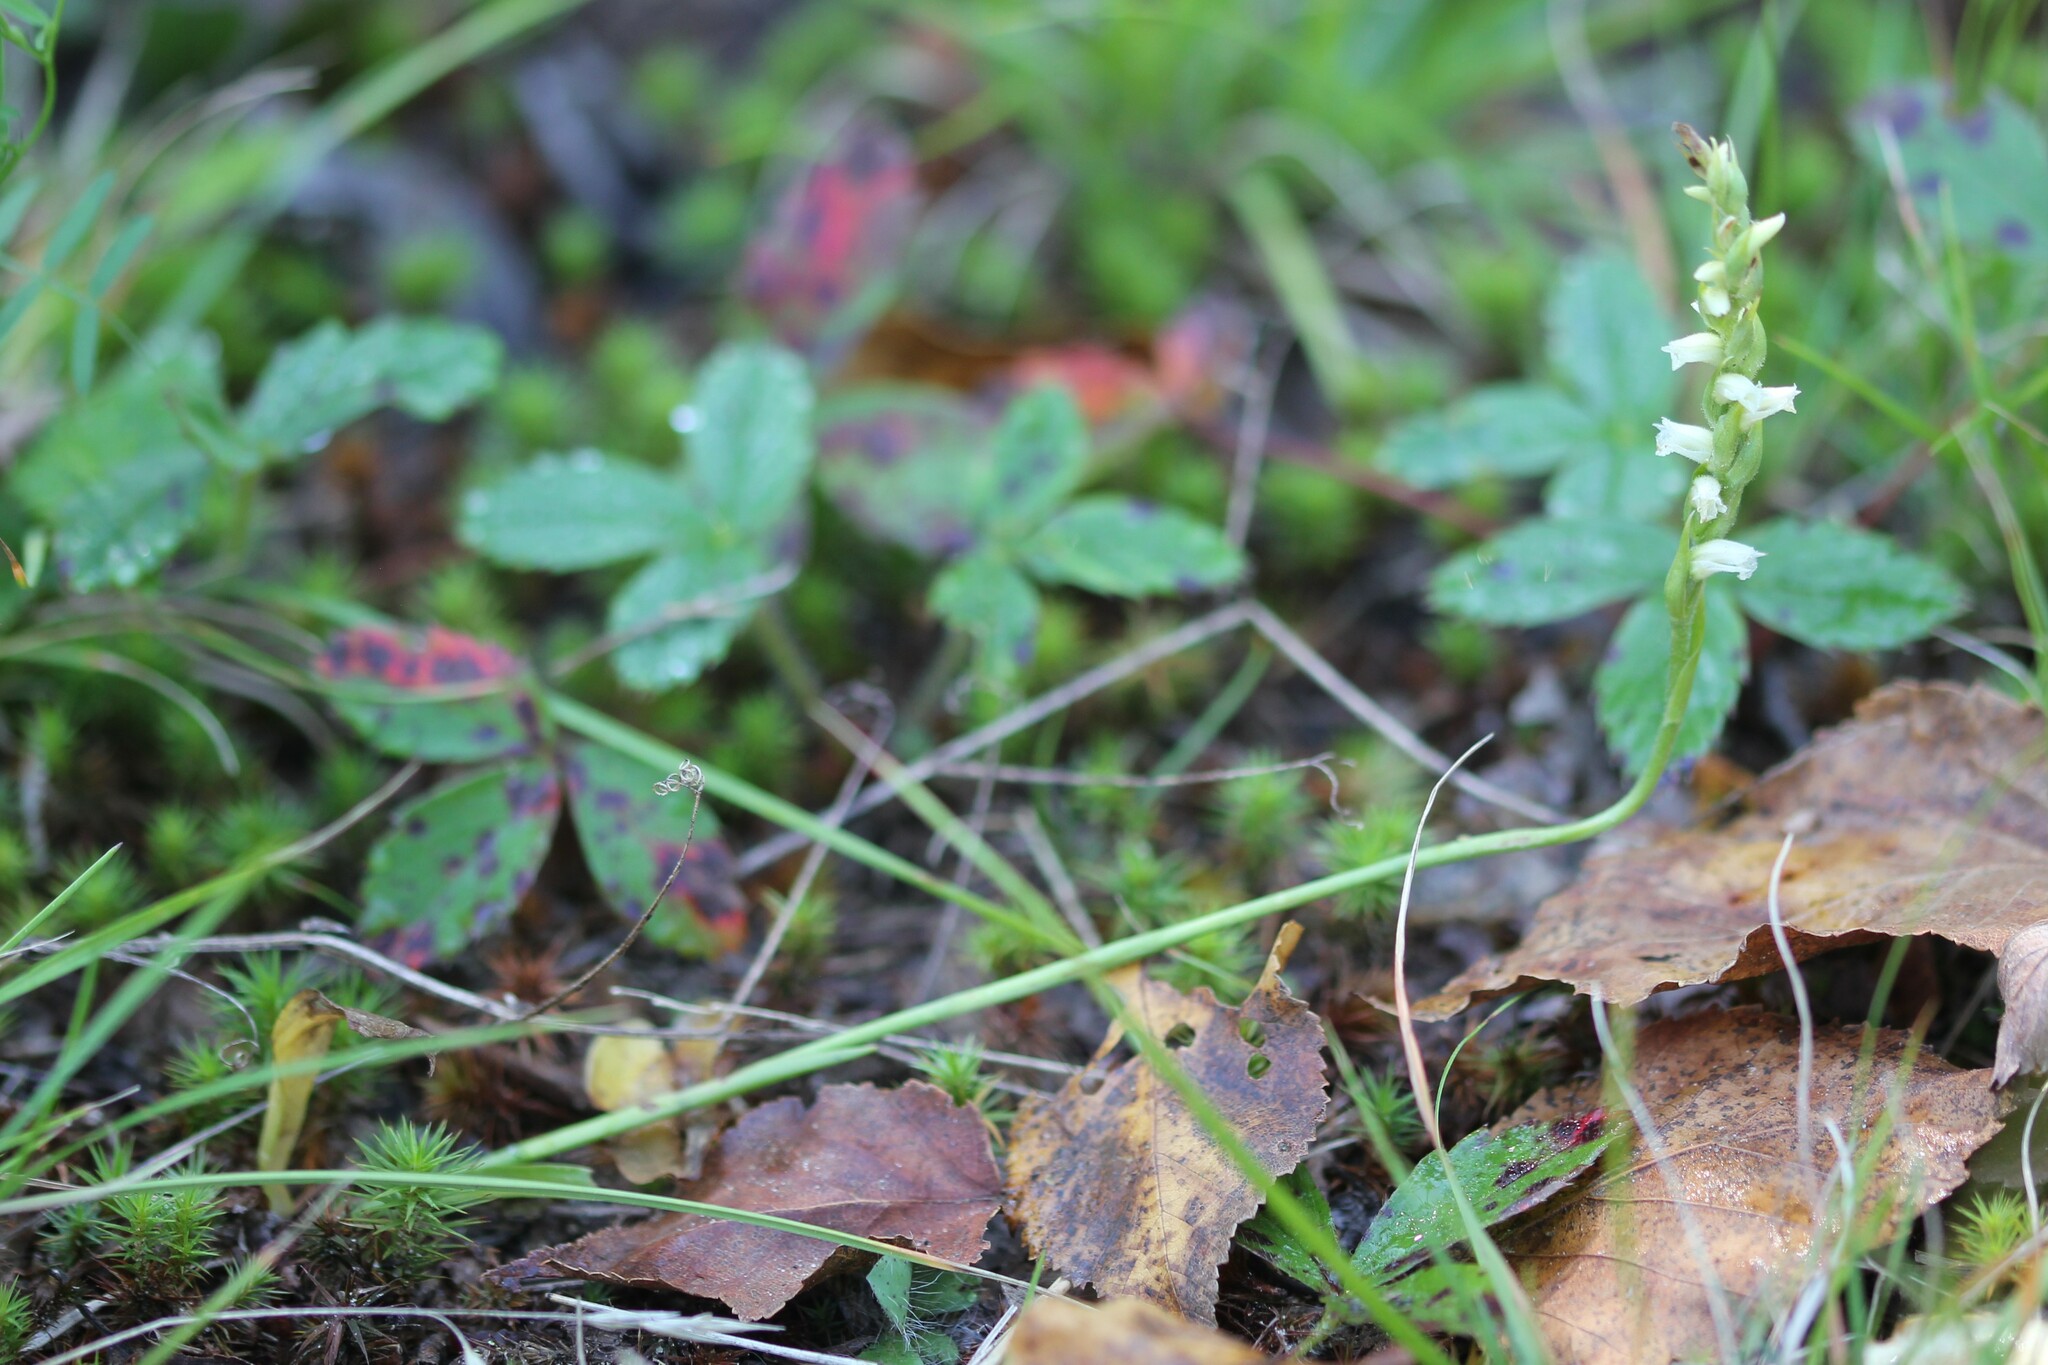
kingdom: Plantae
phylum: Tracheophyta
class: Liliopsida
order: Asparagales
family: Orchidaceae
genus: Spiranthes
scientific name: Spiranthes casei
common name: Case's ladies'-tresses
